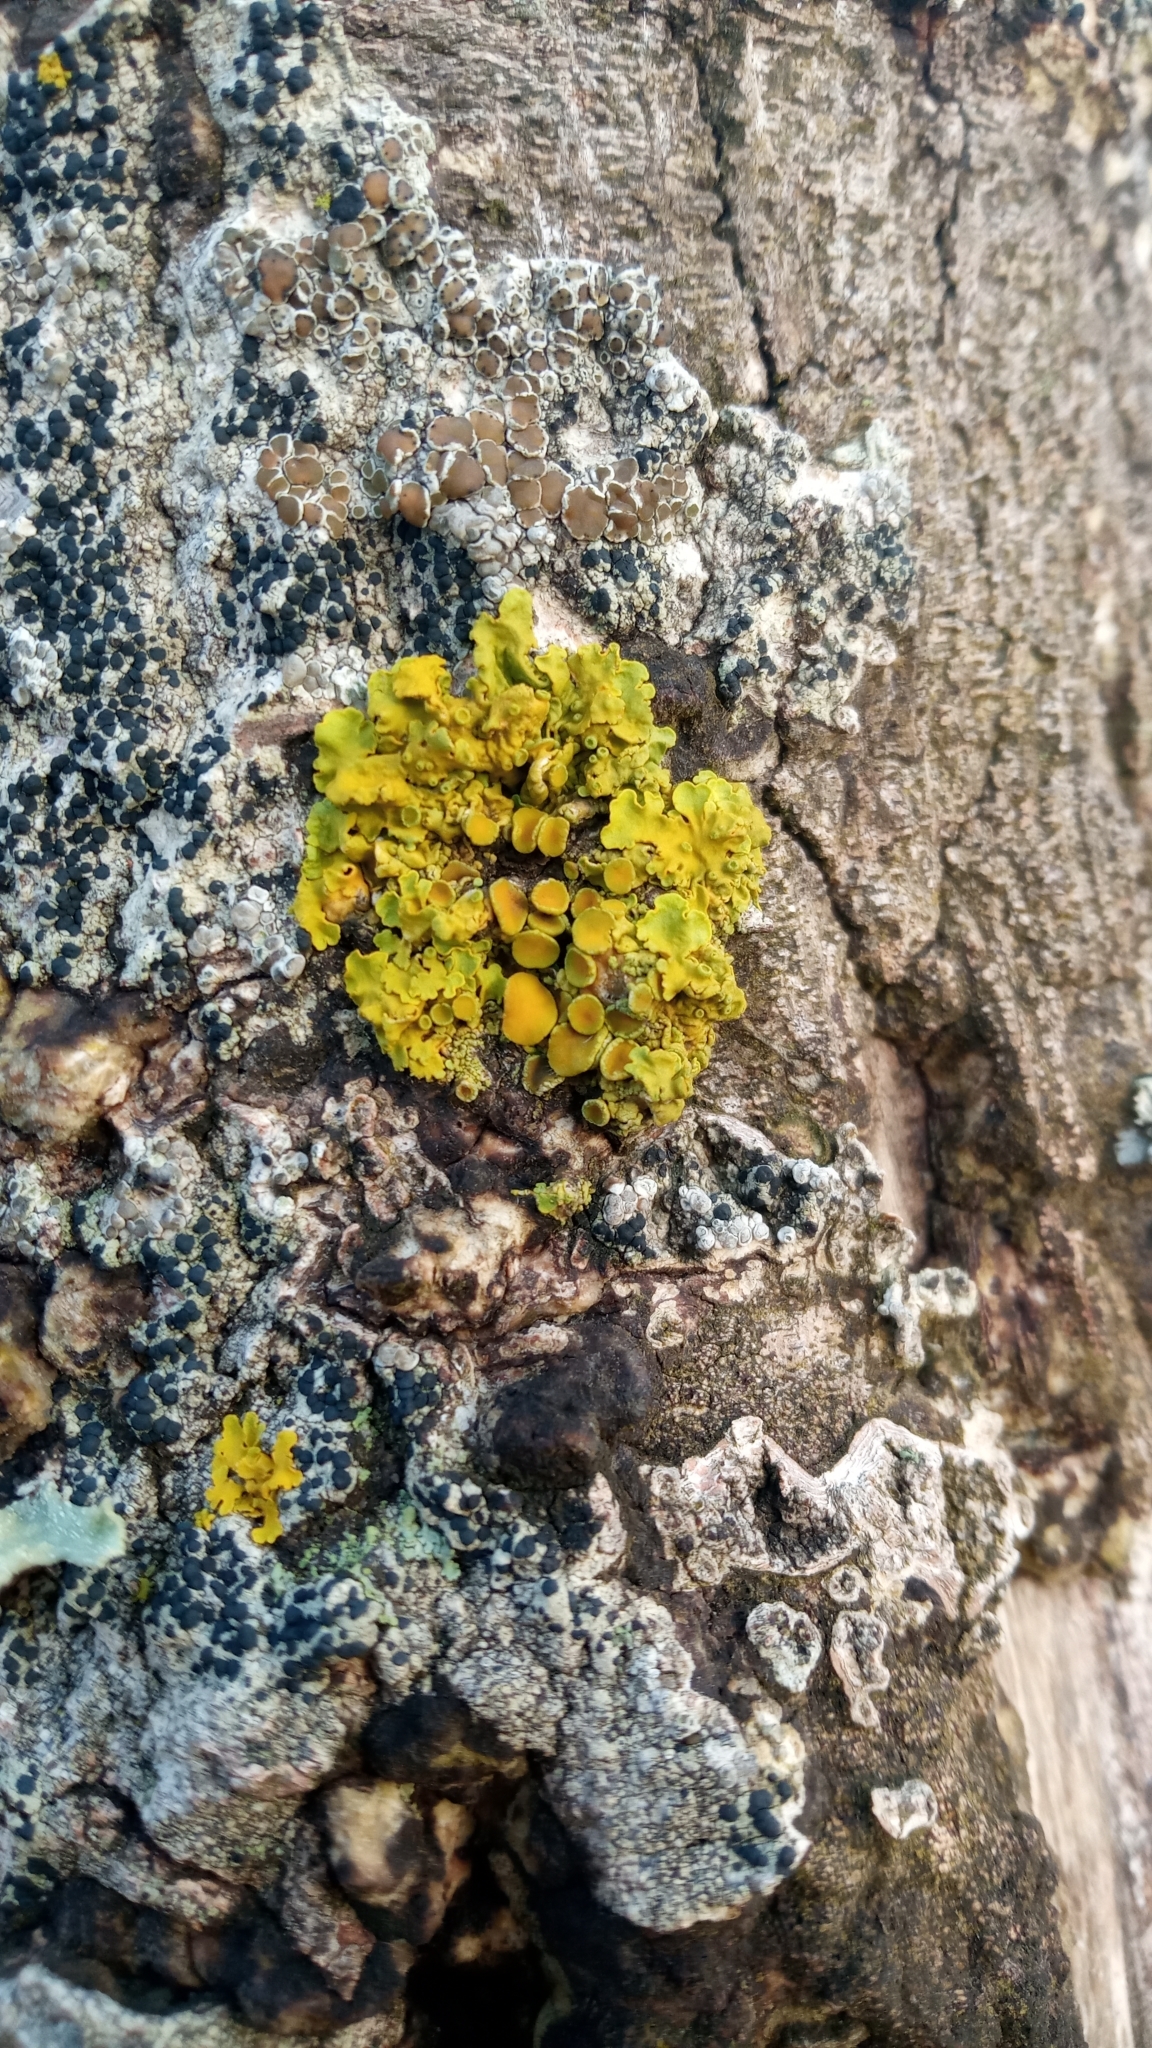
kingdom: Fungi
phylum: Ascomycota
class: Lecanoromycetes
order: Teloschistales
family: Teloschistaceae
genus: Xanthoria
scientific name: Xanthoria parietina
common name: Common orange lichen
